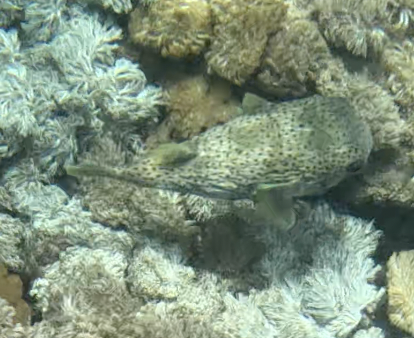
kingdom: Animalia
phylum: Chordata
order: Tetraodontiformes
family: Diodontidae
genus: Diodon
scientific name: Diodon hystrix
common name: Giant porcupinefish
